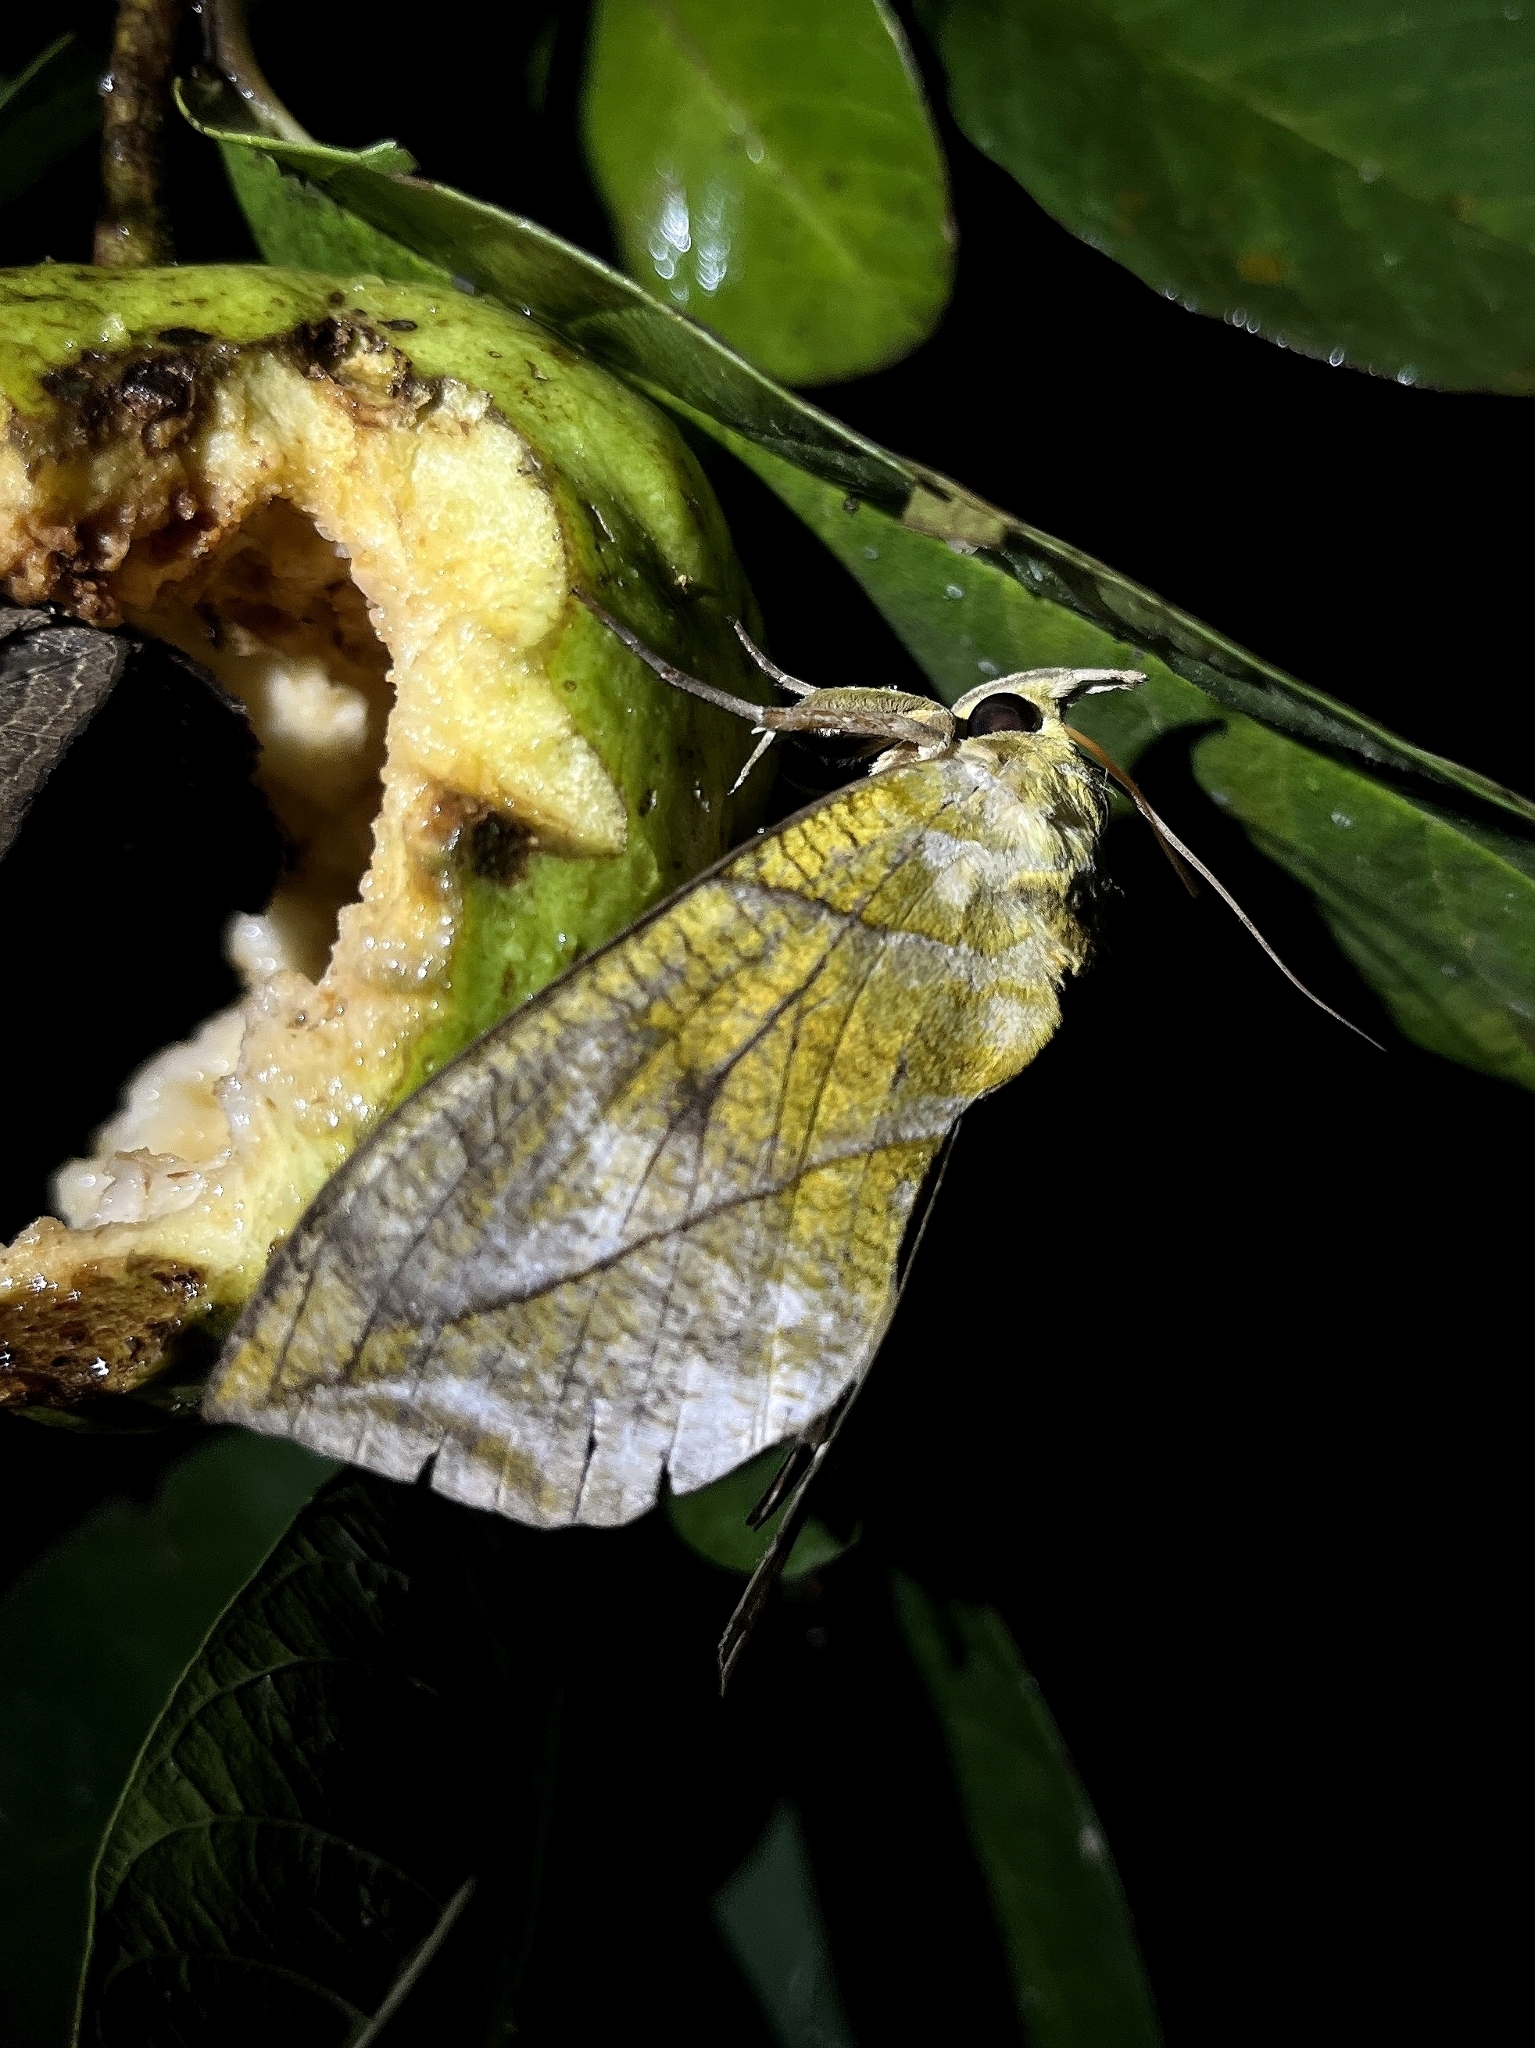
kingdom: Animalia
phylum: Arthropoda
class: Insecta
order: Lepidoptera
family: Erebidae
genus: Eudocima
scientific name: Eudocima hypermnestra
